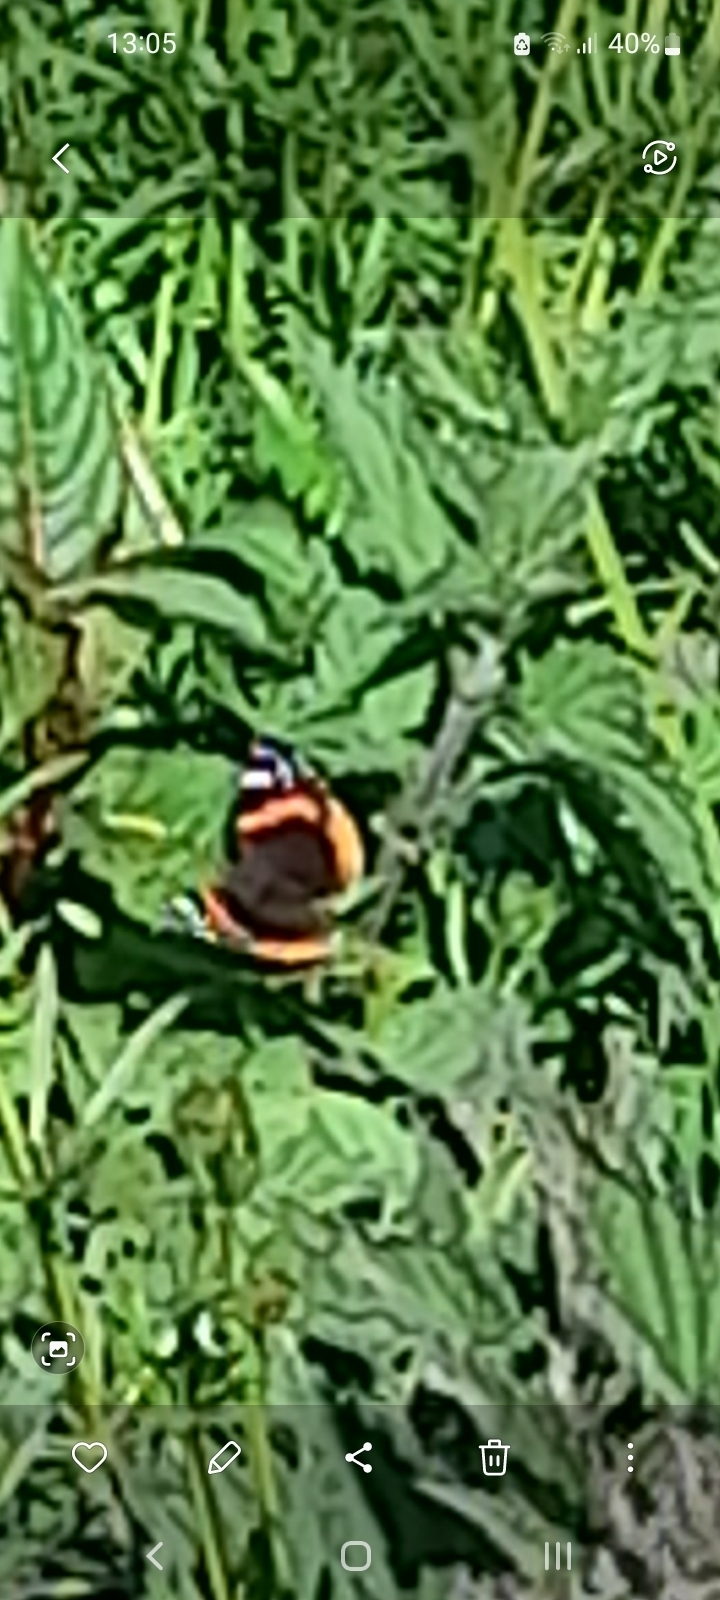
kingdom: Animalia
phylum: Arthropoda
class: Insecta
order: Lepidoptera
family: Nymphalidae
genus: Vanessa
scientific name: Vanessa atalanta
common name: Red admiral
